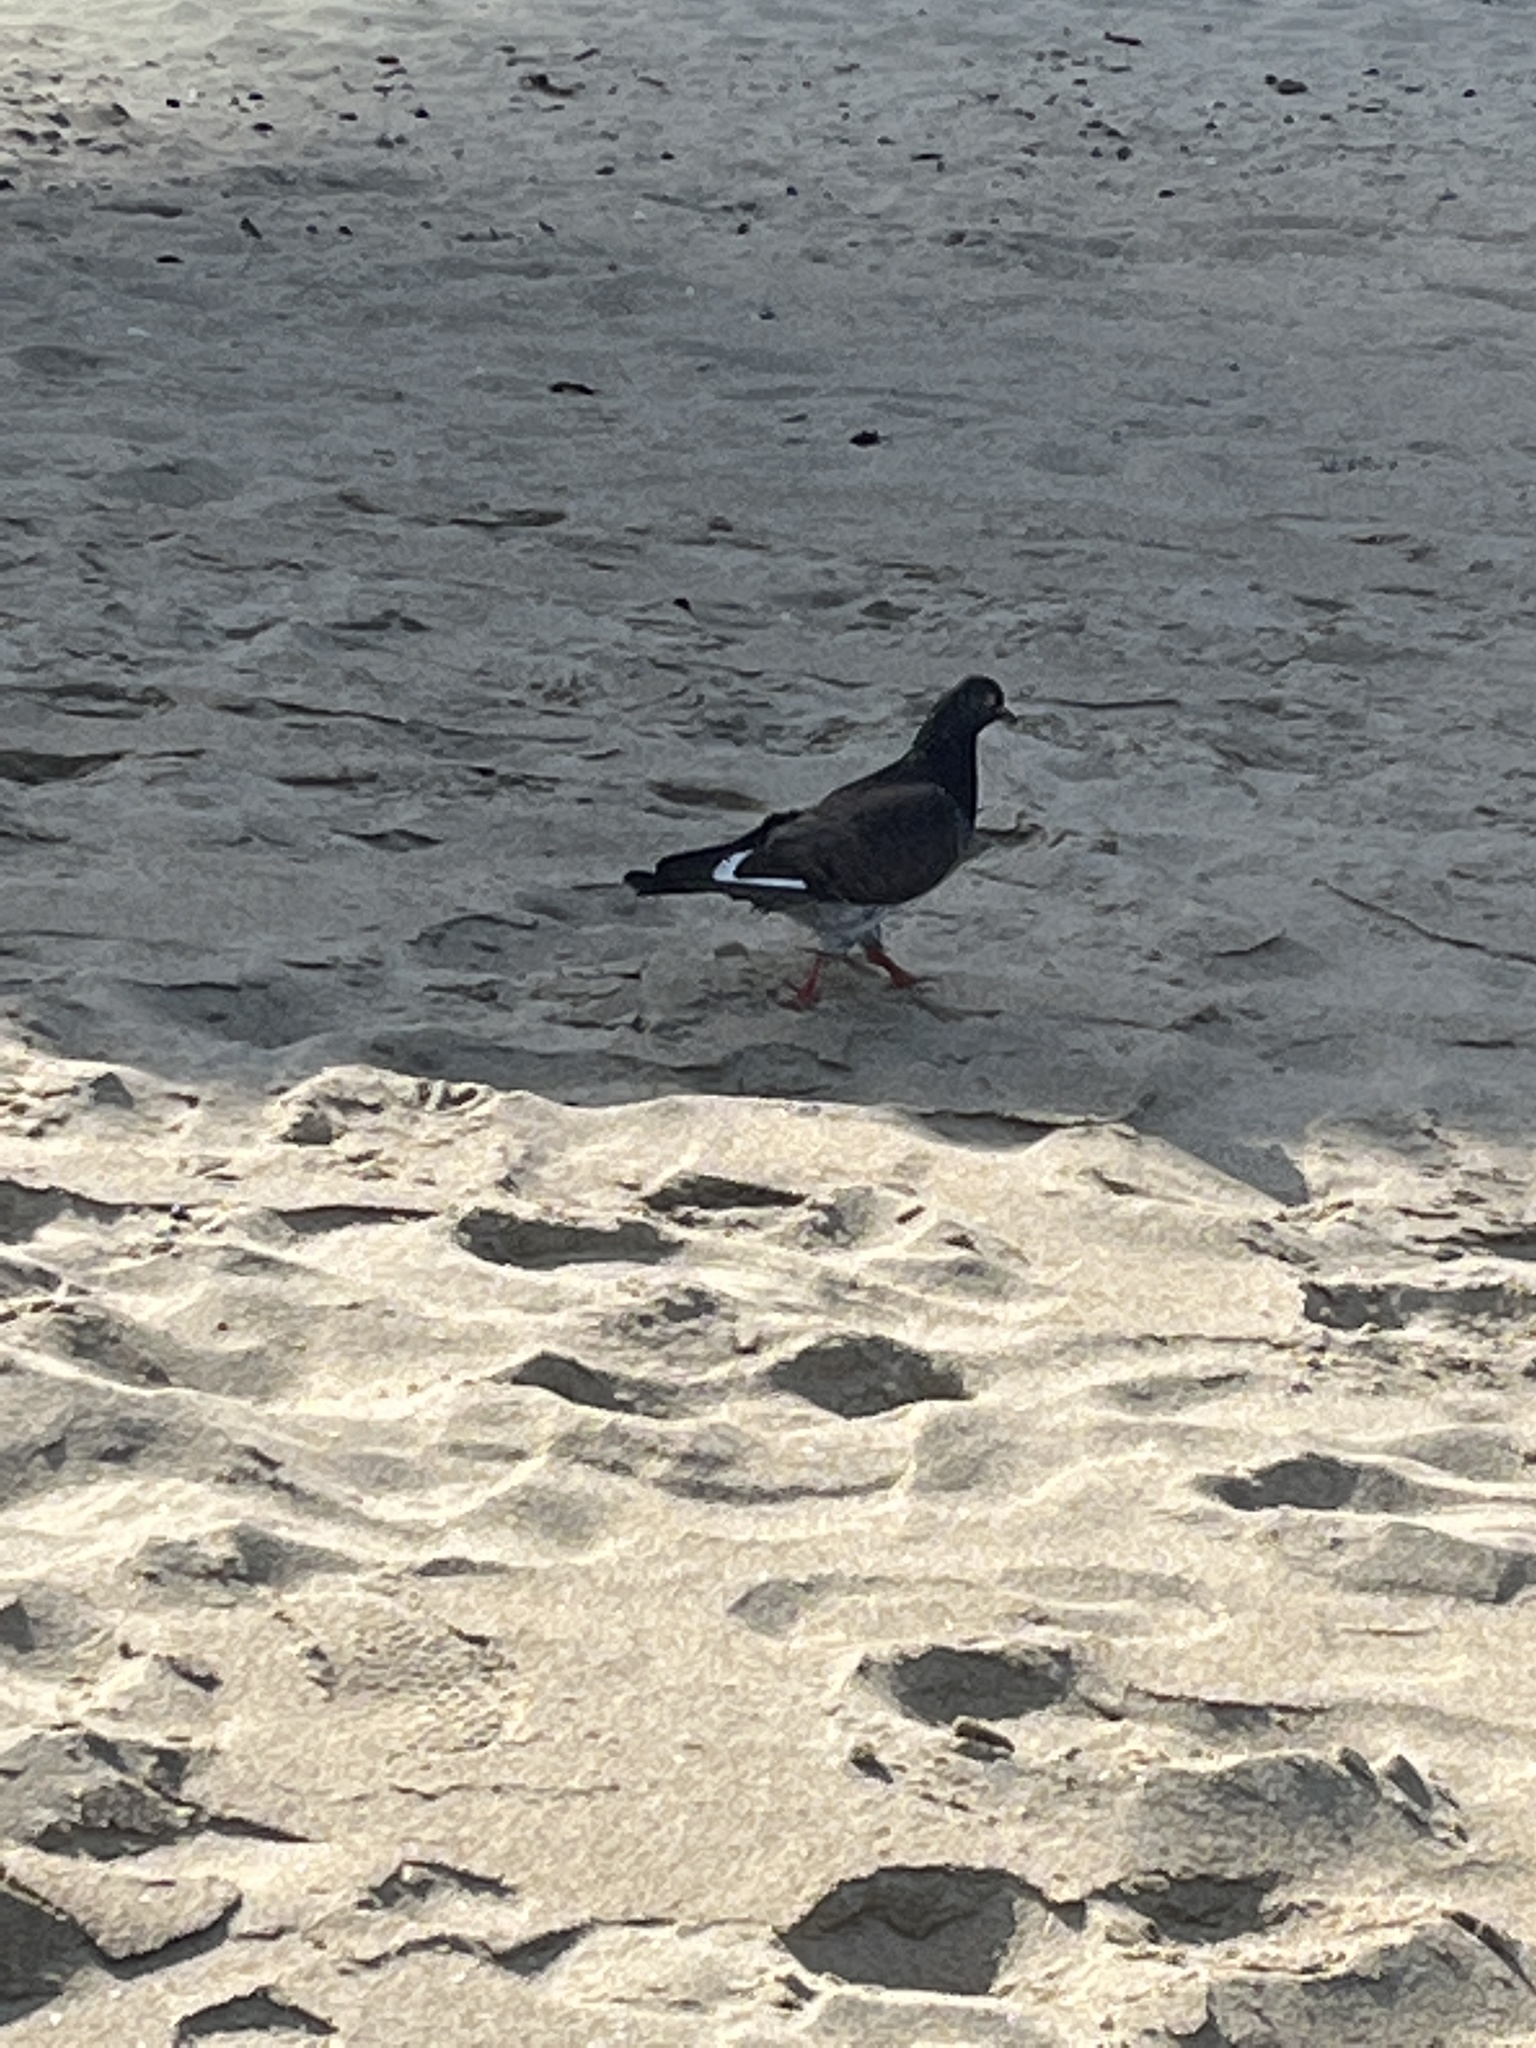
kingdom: Animalia
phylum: Chordata
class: Aves
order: Columbiformes
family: Columbidae
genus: Columba
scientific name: Columba livia
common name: Rock pigeon
